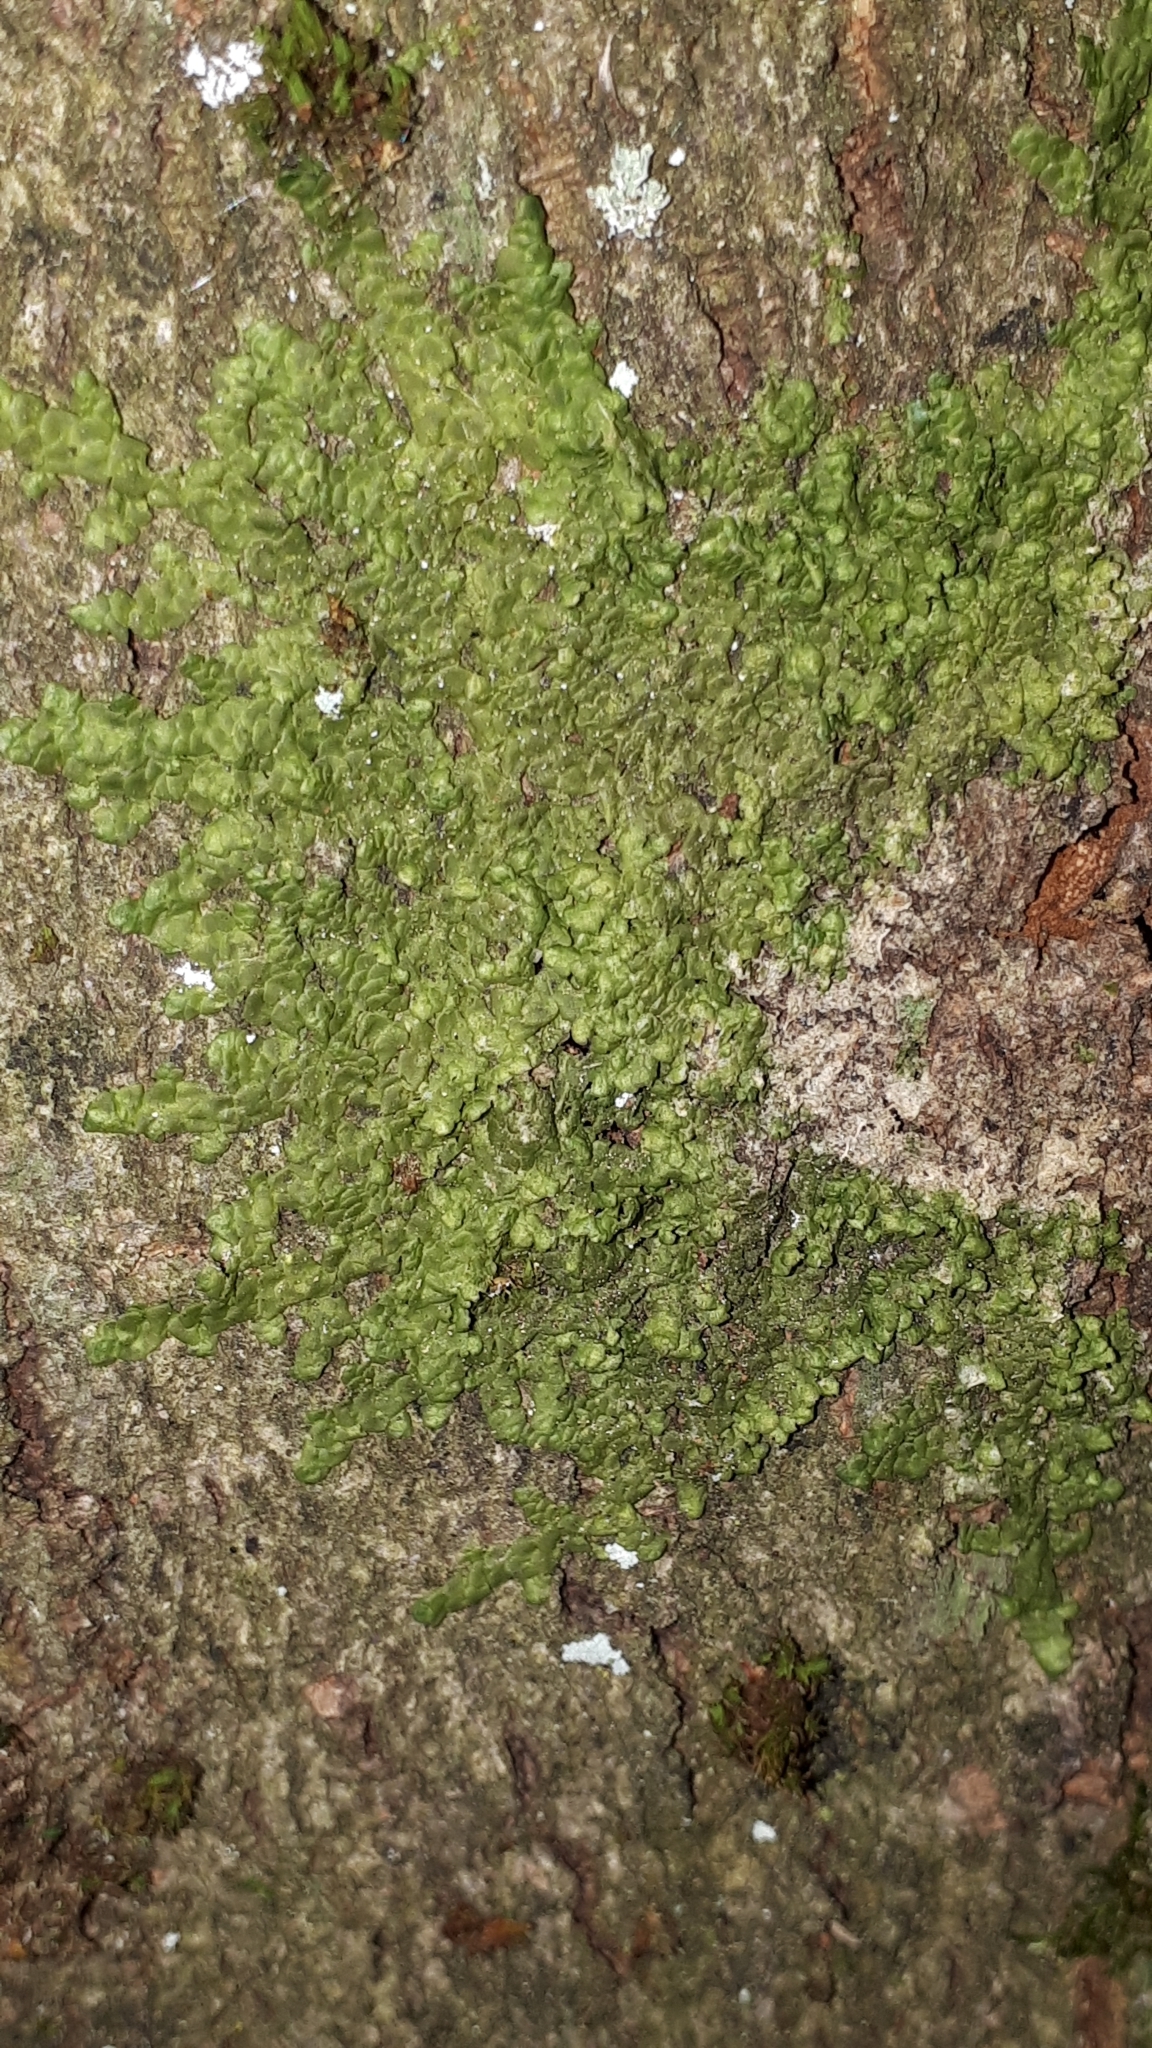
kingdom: Plantae
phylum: Marchantiophyta
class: Jungermanniopsida
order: Porellales
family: Radulaceae
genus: Radula
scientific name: Radula complanata
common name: Flat-leaved scalewort
